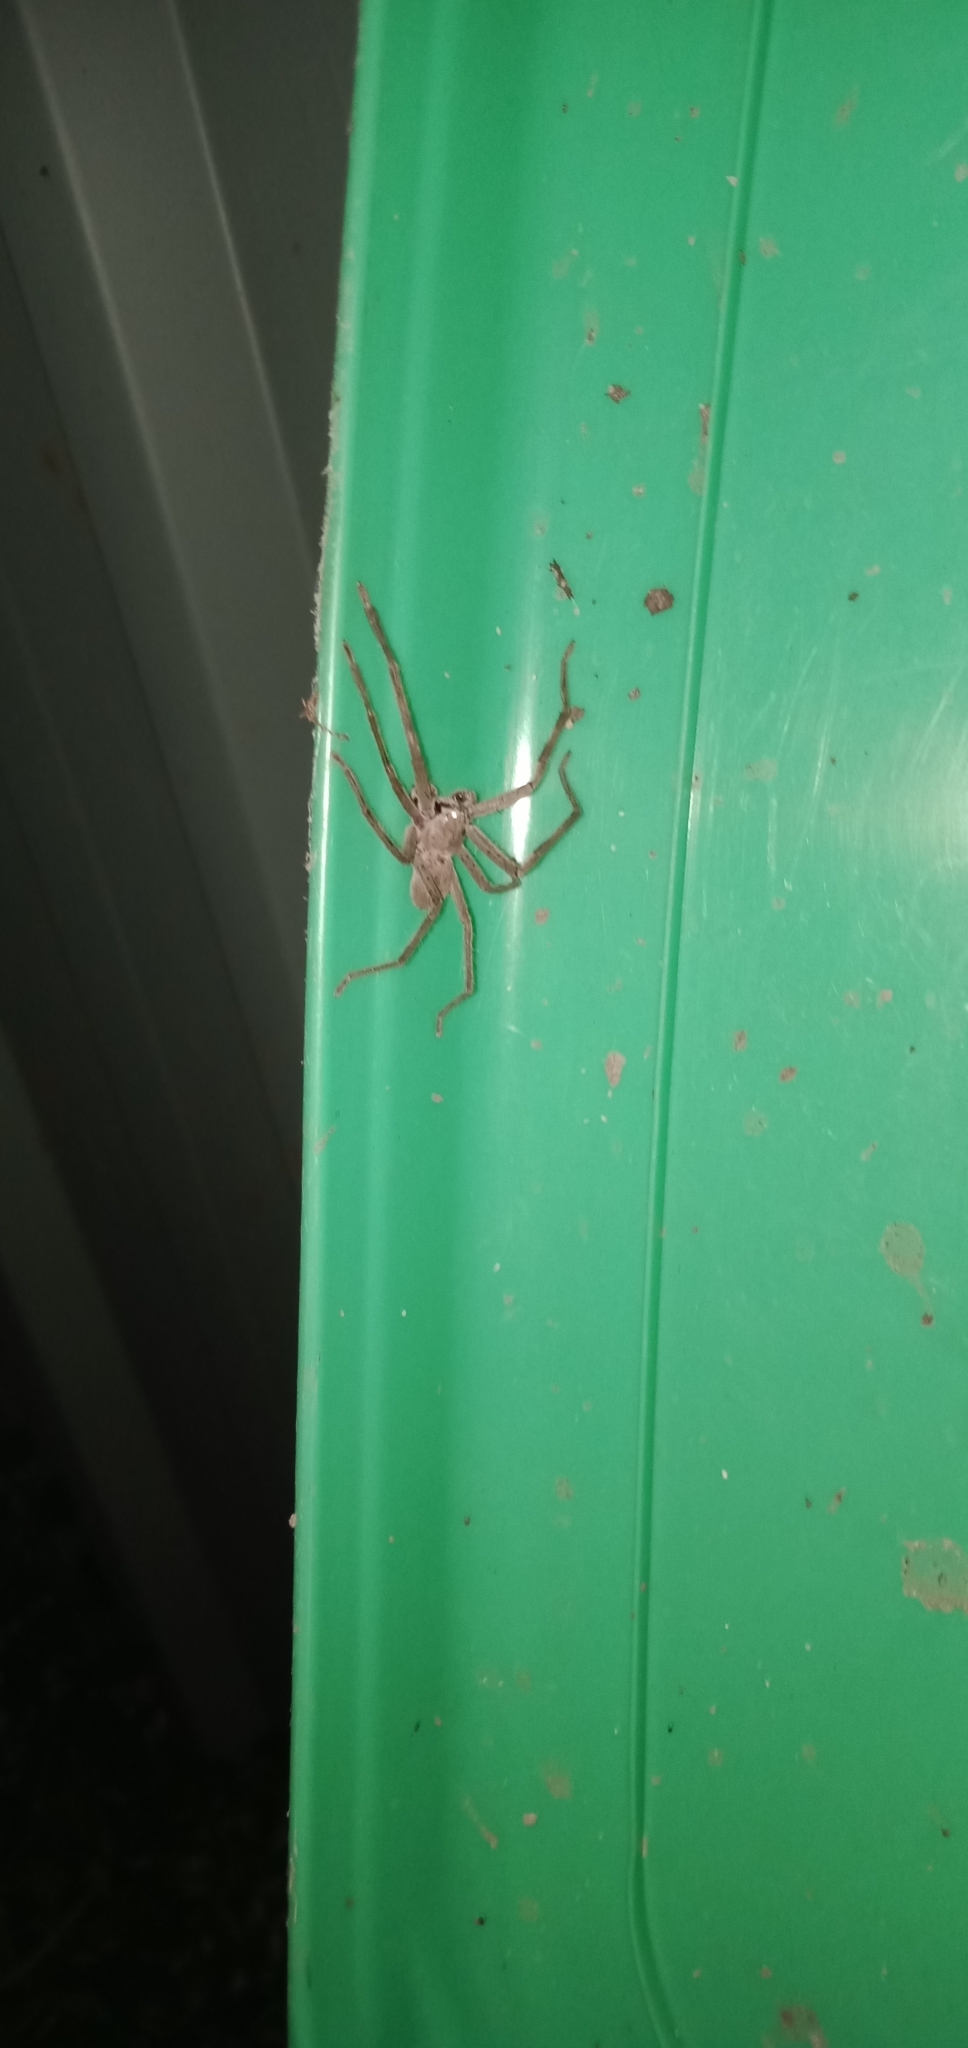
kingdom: Animalia
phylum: Arthropoda
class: Arachnida
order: Araneae
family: Sparassidae
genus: Isopedella
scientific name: Isopedella pessleri
